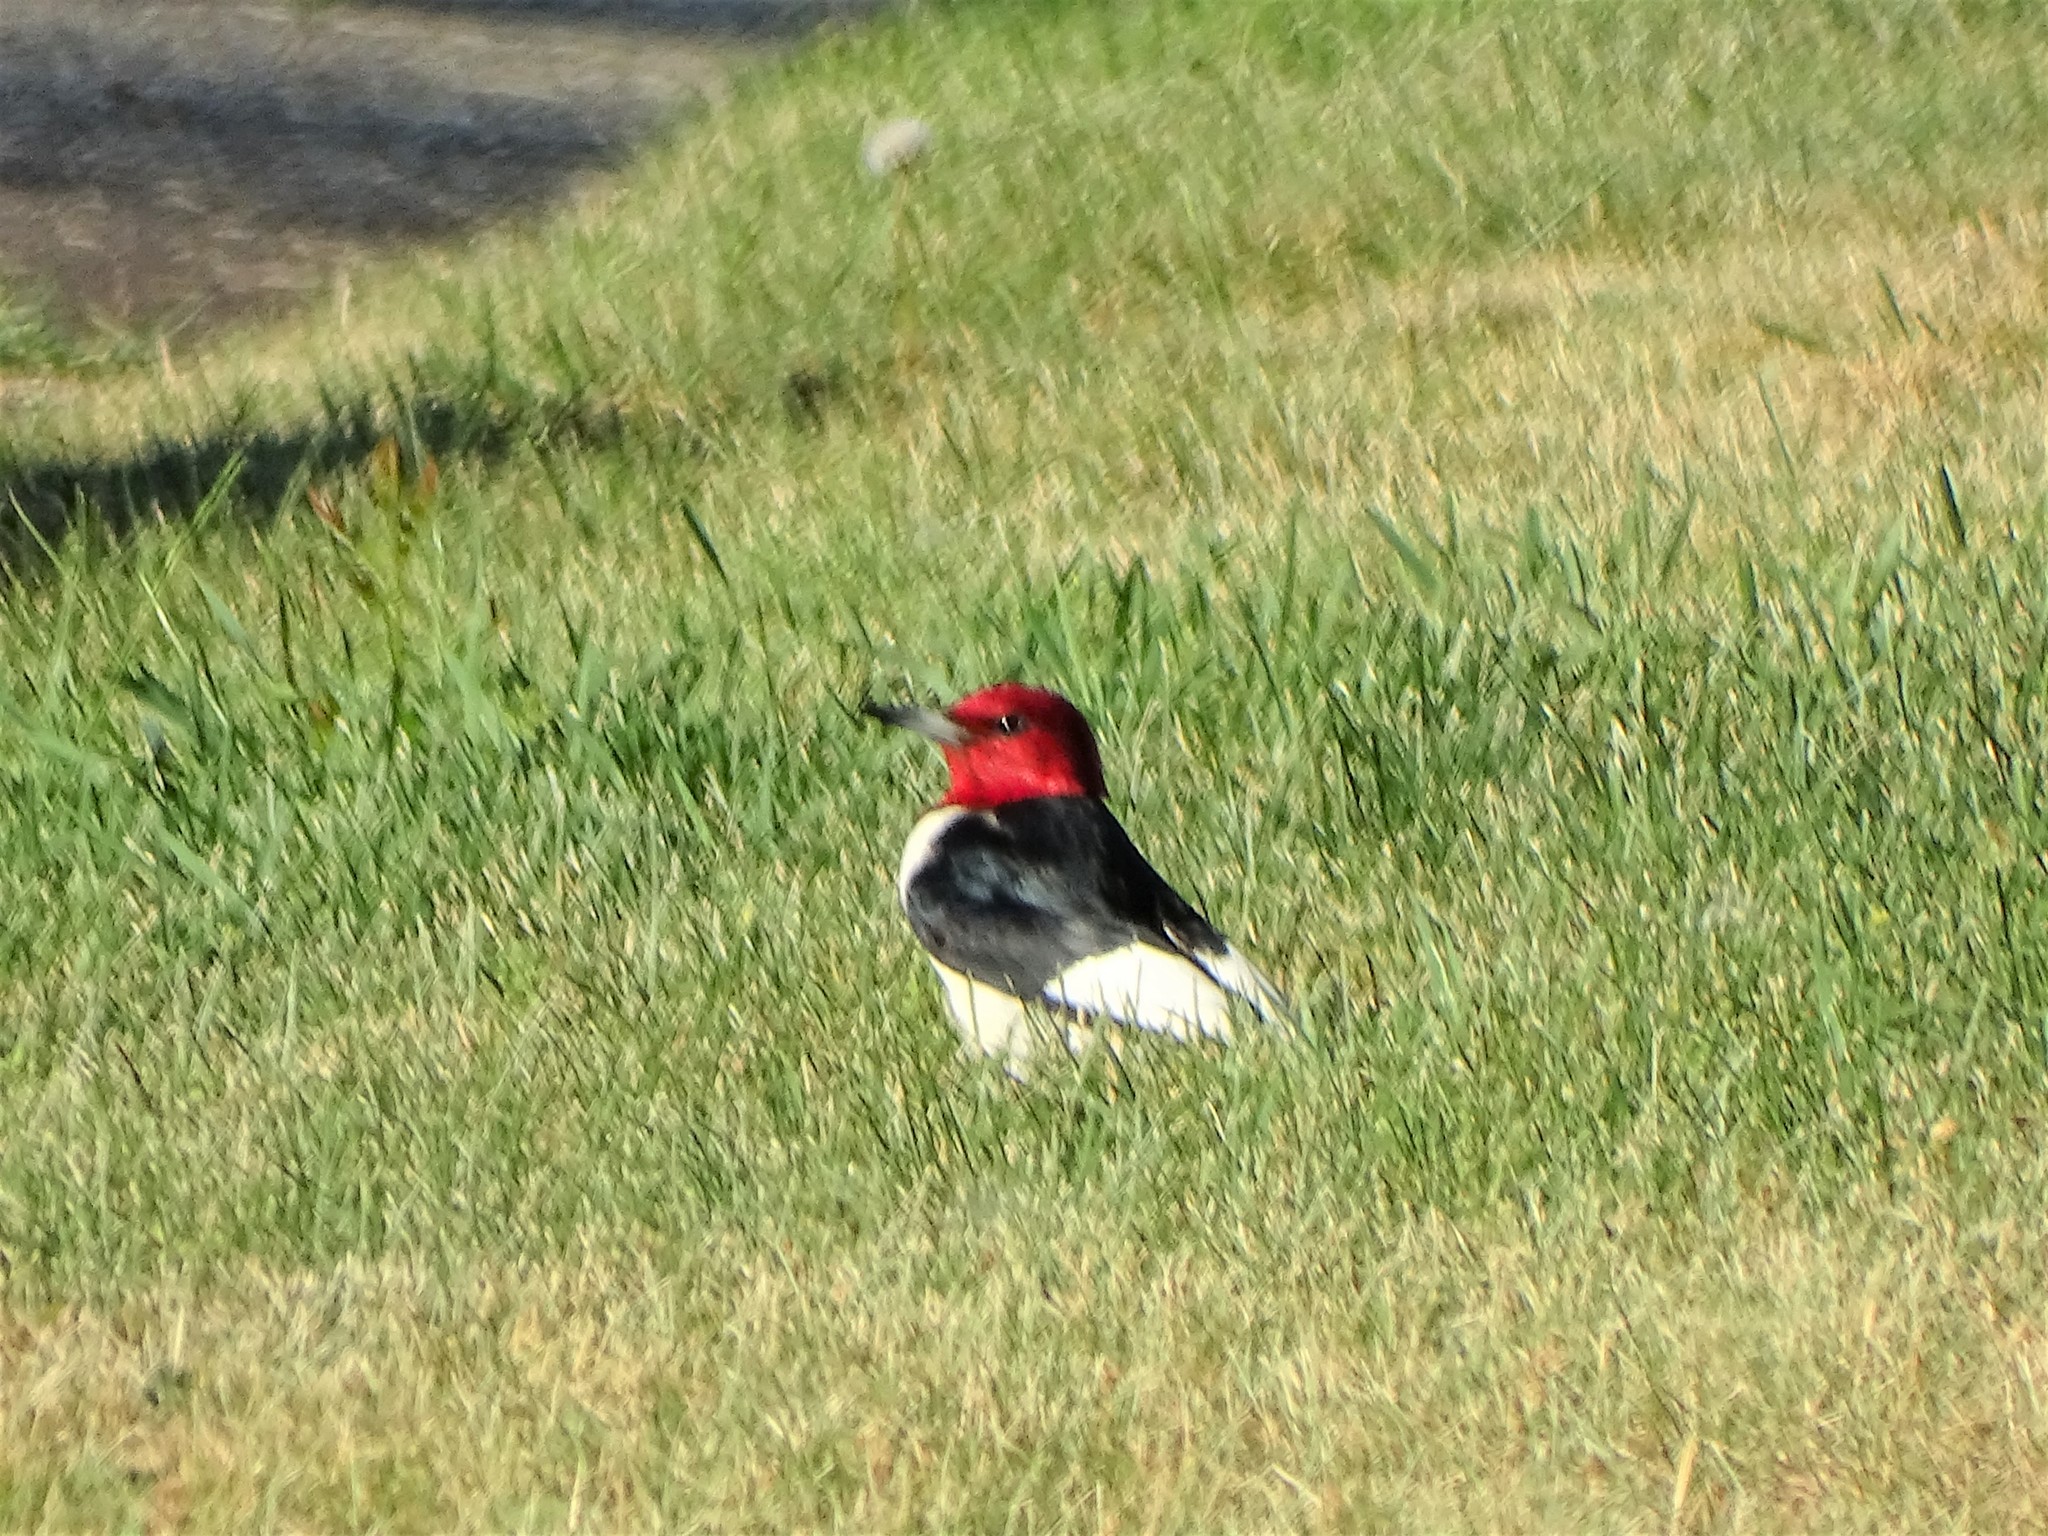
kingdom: Animalia
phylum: Chordata
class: Aves
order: Piciformes
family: Picidae
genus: Melanerpes
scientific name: Melanerpes erythrocephalus
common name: Red-headed woodpecker
